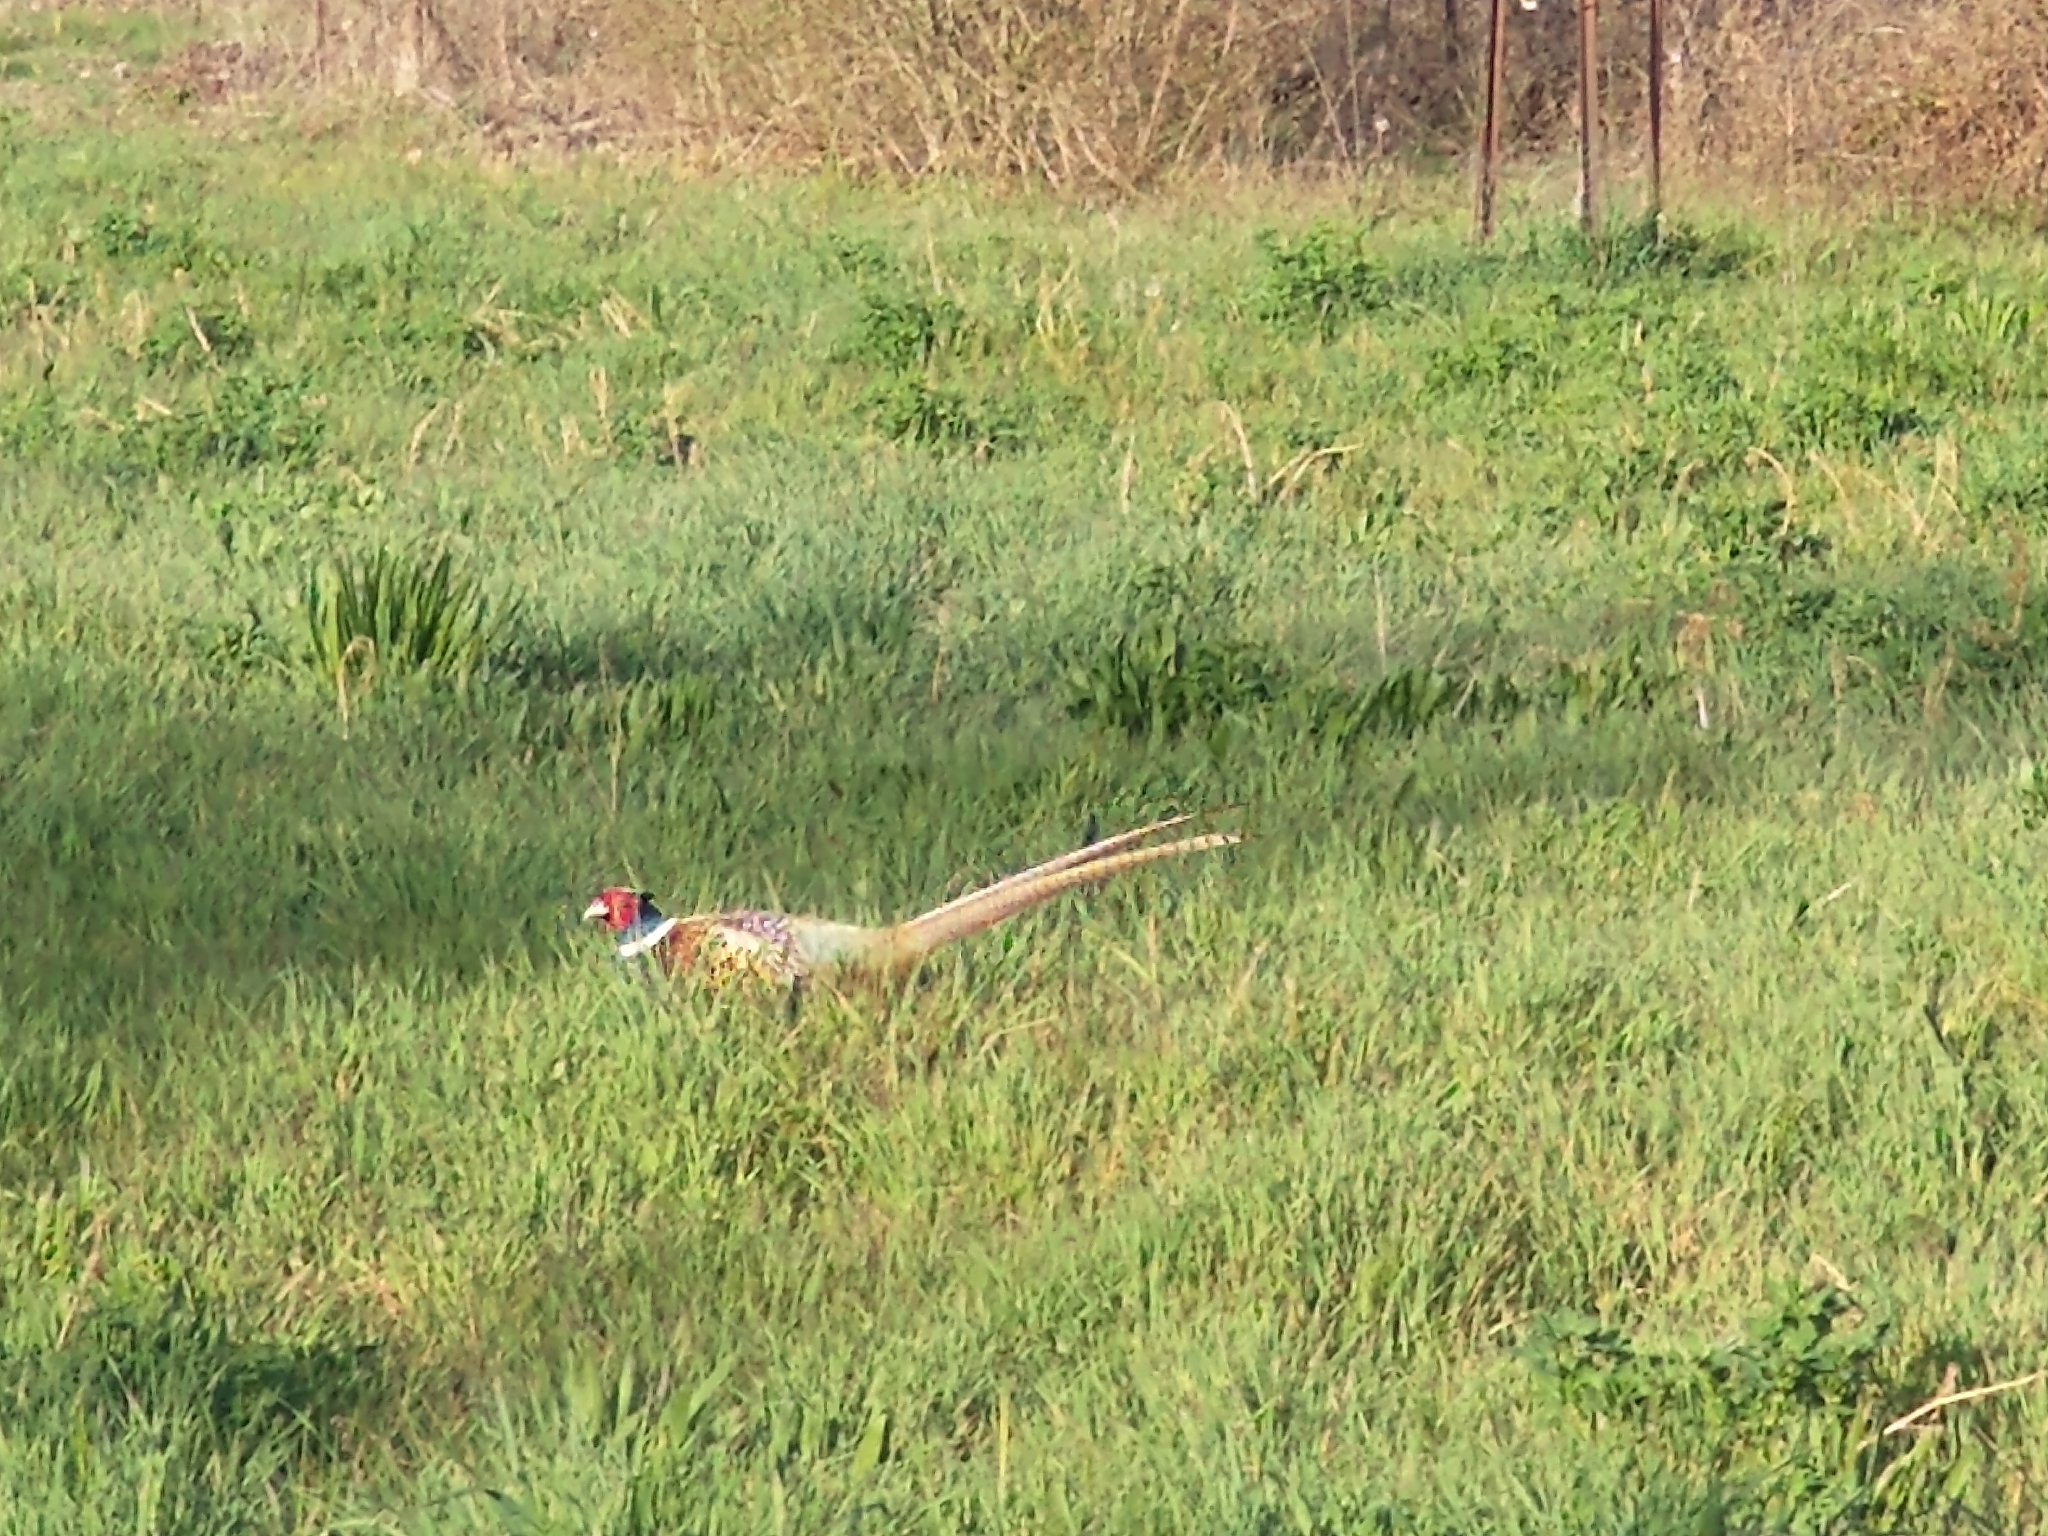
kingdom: Animalia
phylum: Chordata
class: Aves
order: Galliformes
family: Phasianidae
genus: Phasianus
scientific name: Phasianus colchicus
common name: Common pheasant
